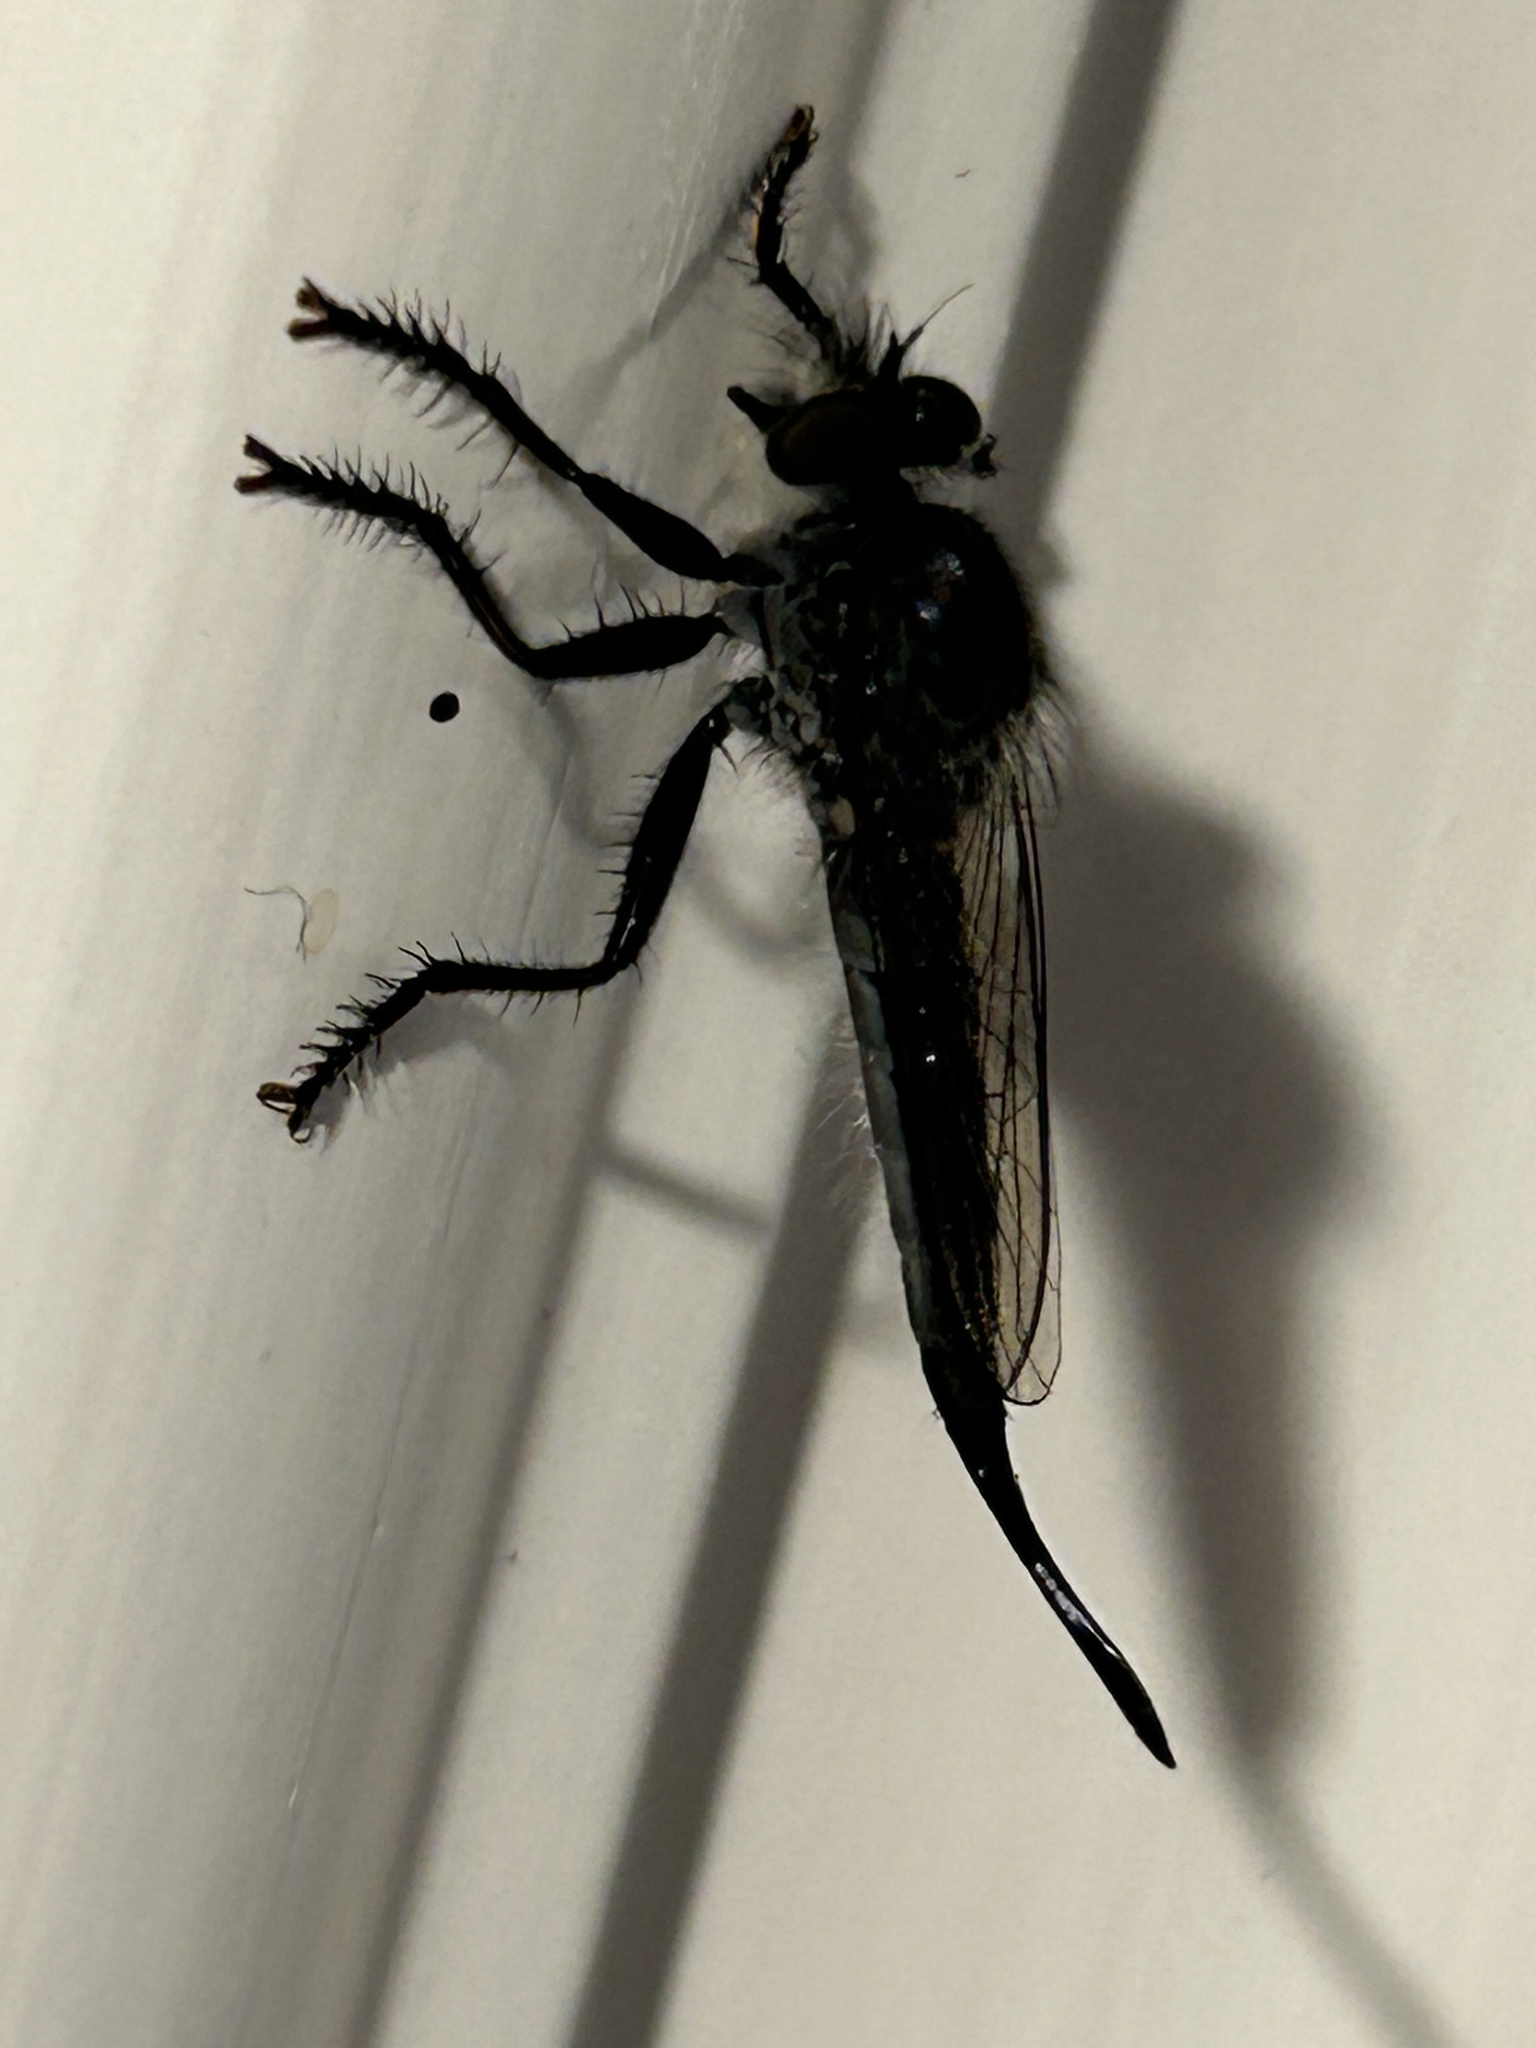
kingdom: Animalia
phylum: Arthropoda
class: Insecta
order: Diptera
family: Asilidae
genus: Efferia
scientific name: Efferia aestuans
